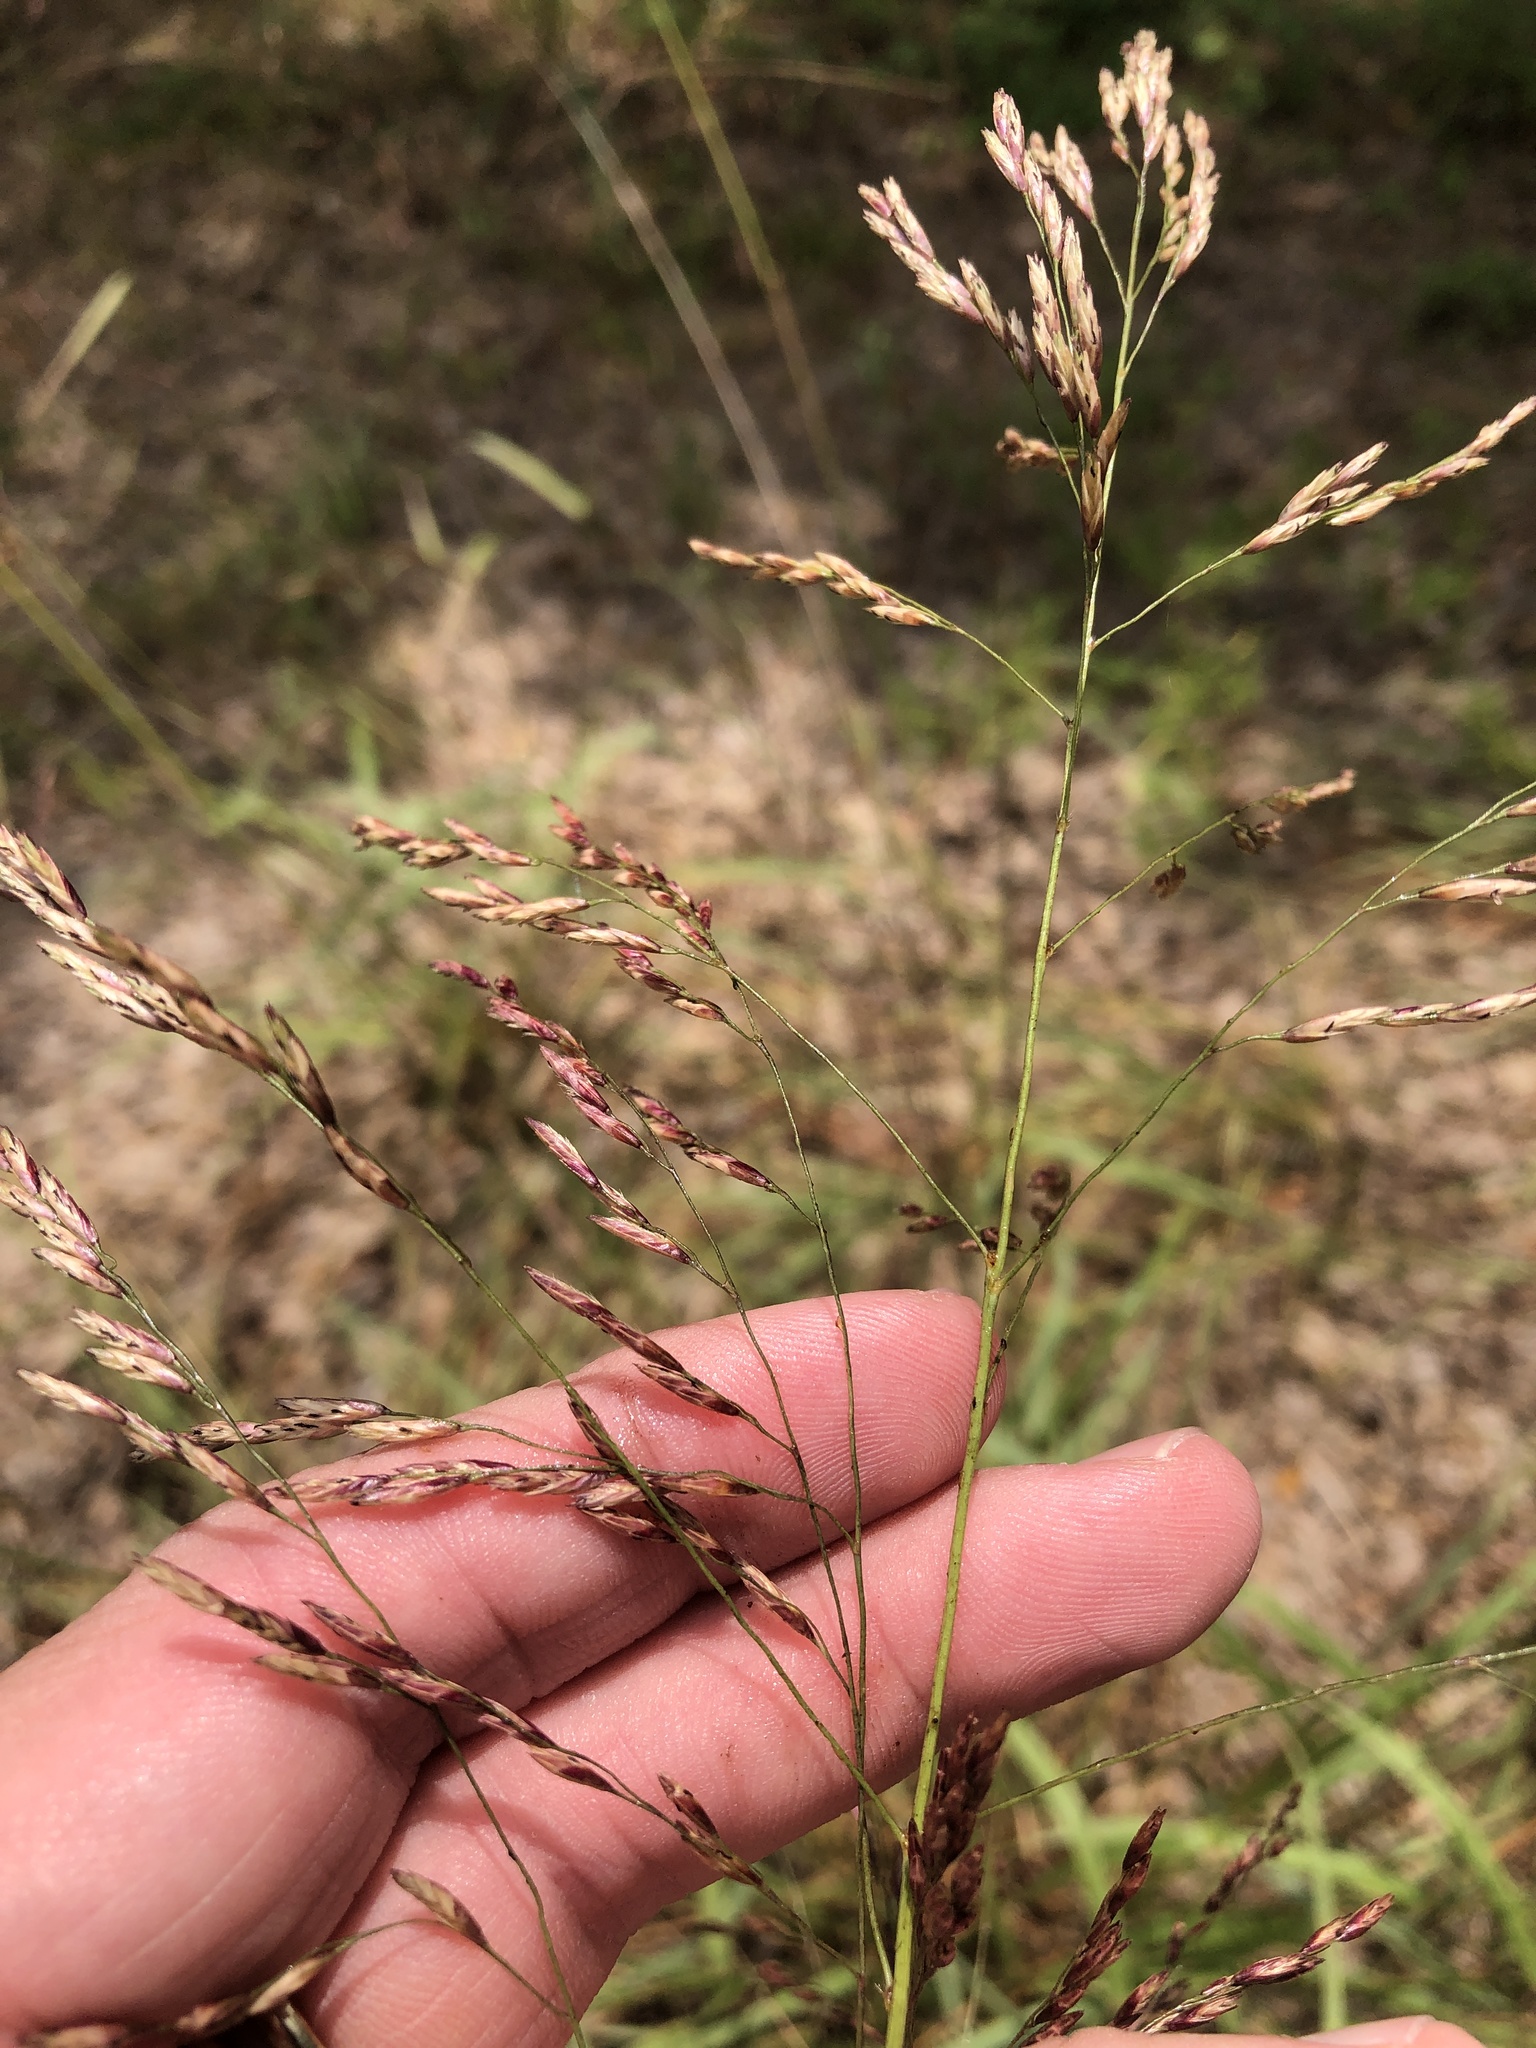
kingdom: Plantae
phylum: Tracheophyta
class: Liliopsida
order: Poales
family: Poaceae
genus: Tridens
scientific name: Tridens flavus
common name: Purpletop
